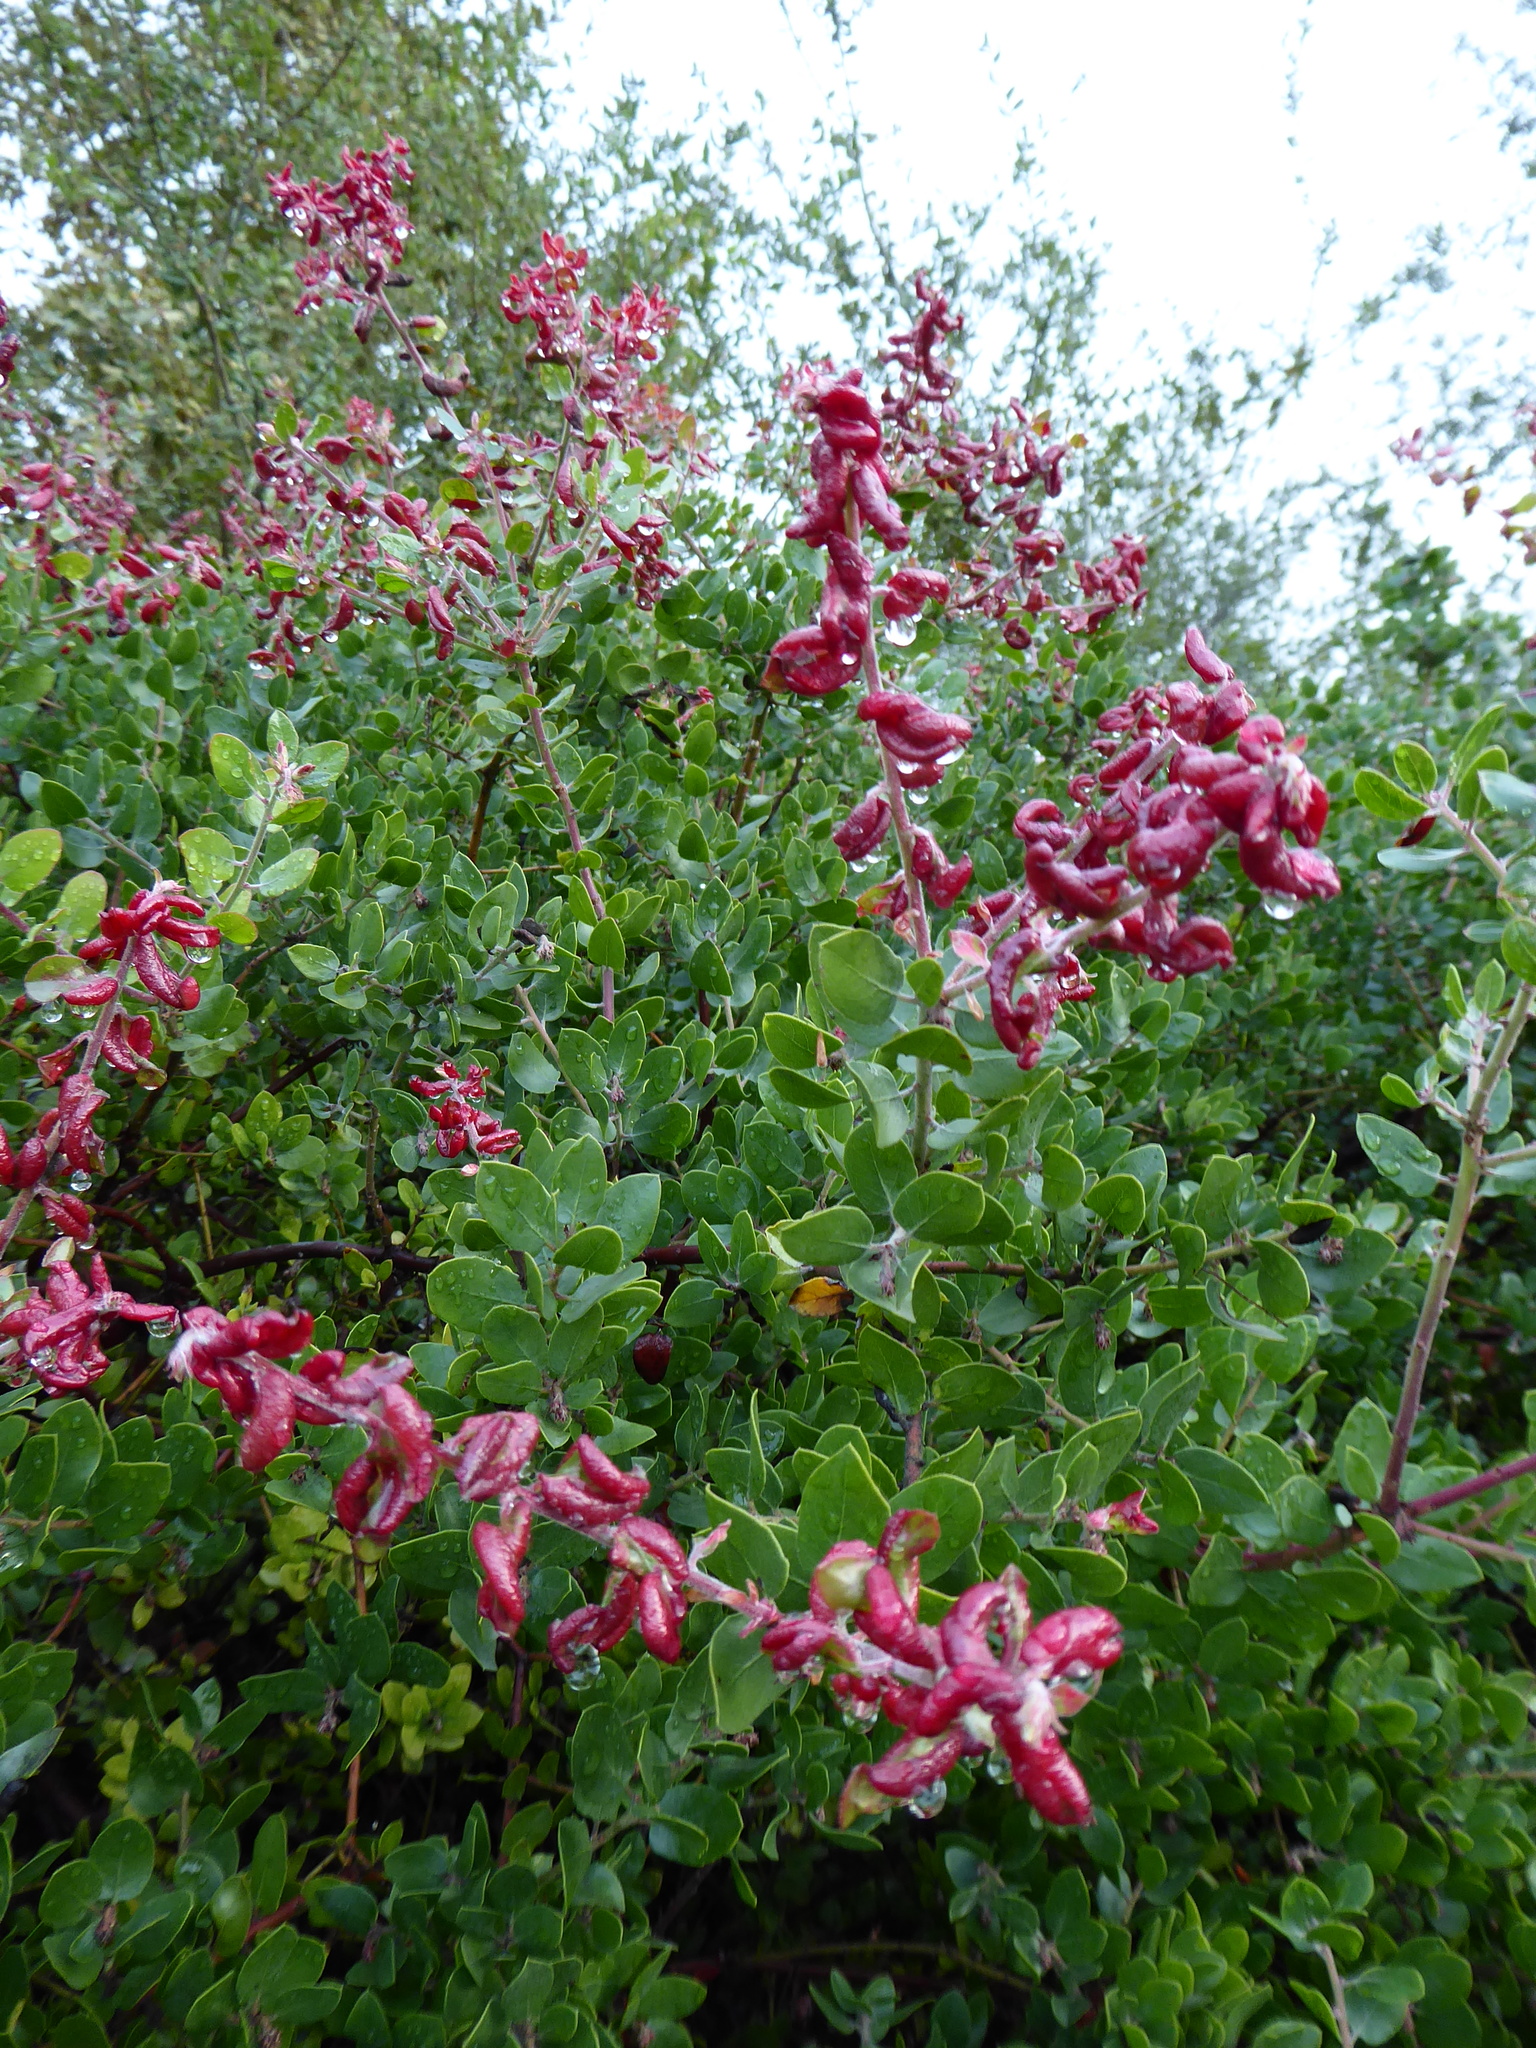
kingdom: Animalia
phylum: Arthropoda
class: Insecta
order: Hemiptera
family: Aphididae
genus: Tamalia
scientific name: Tamalia coweni
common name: Manzanita leafgall aphid
